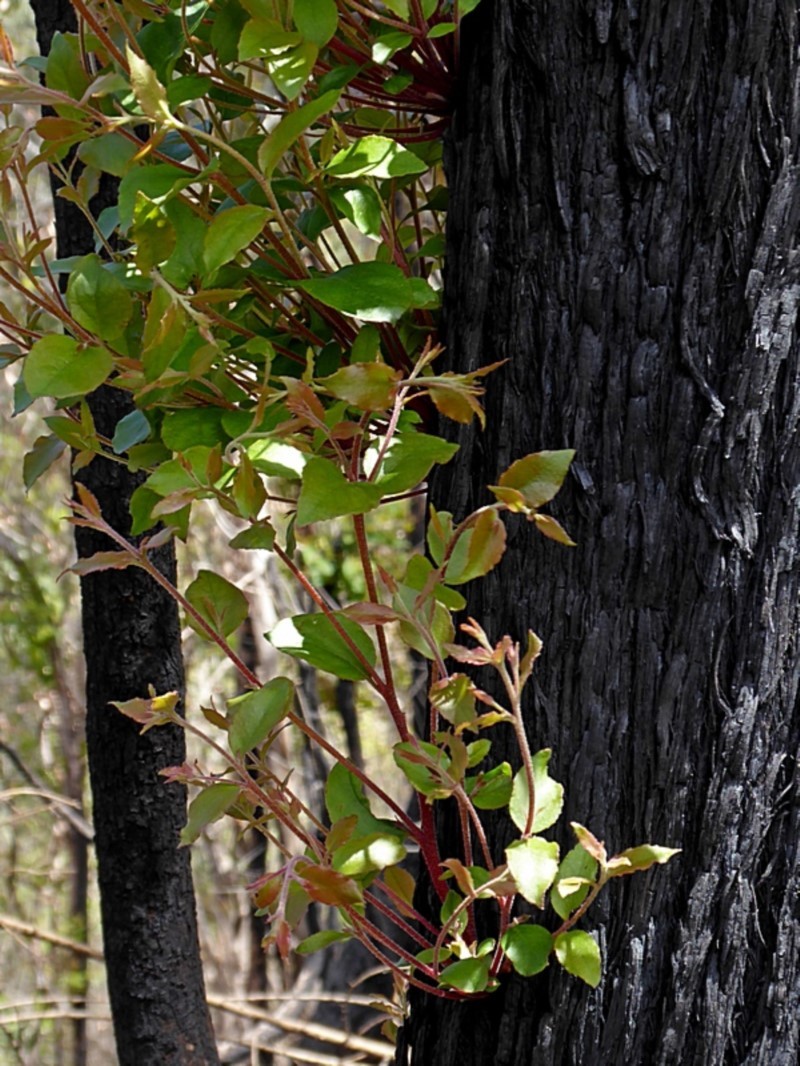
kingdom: Plantae
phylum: Tracheophyta
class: Magnoliopsida
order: Myrtales
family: Myrtaceae
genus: Eucalyptus
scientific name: Eucalyptus globoidea
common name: White-stringybark
